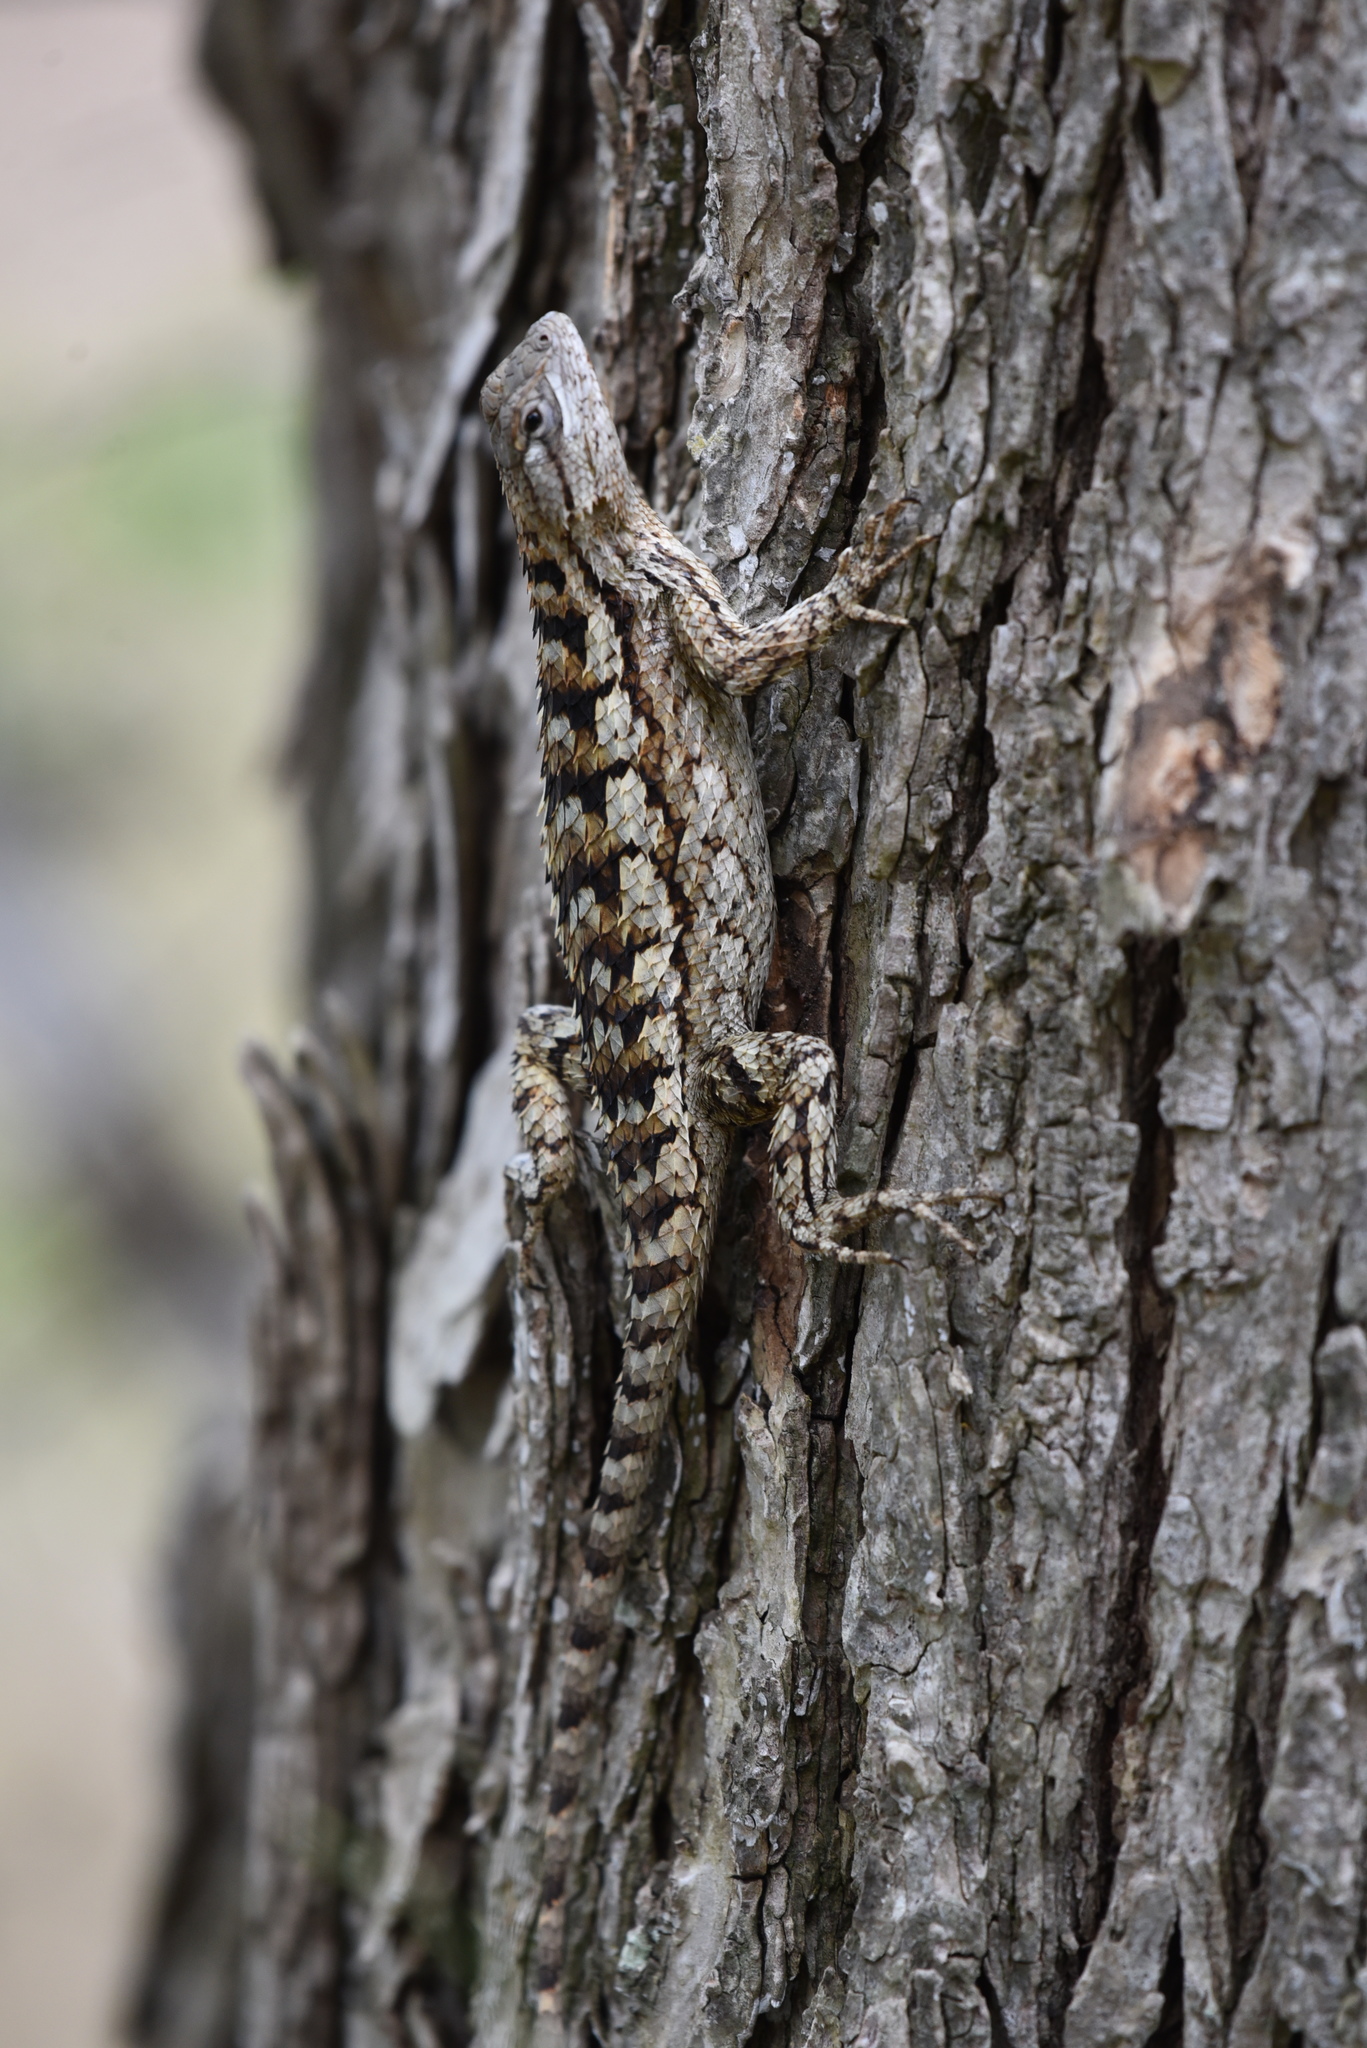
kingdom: Animalia
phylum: Chordata
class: Squamata
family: Phrynosomatidae
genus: Sceloporus
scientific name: Sceloporus olivaceus
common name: Texas spiny lizard
